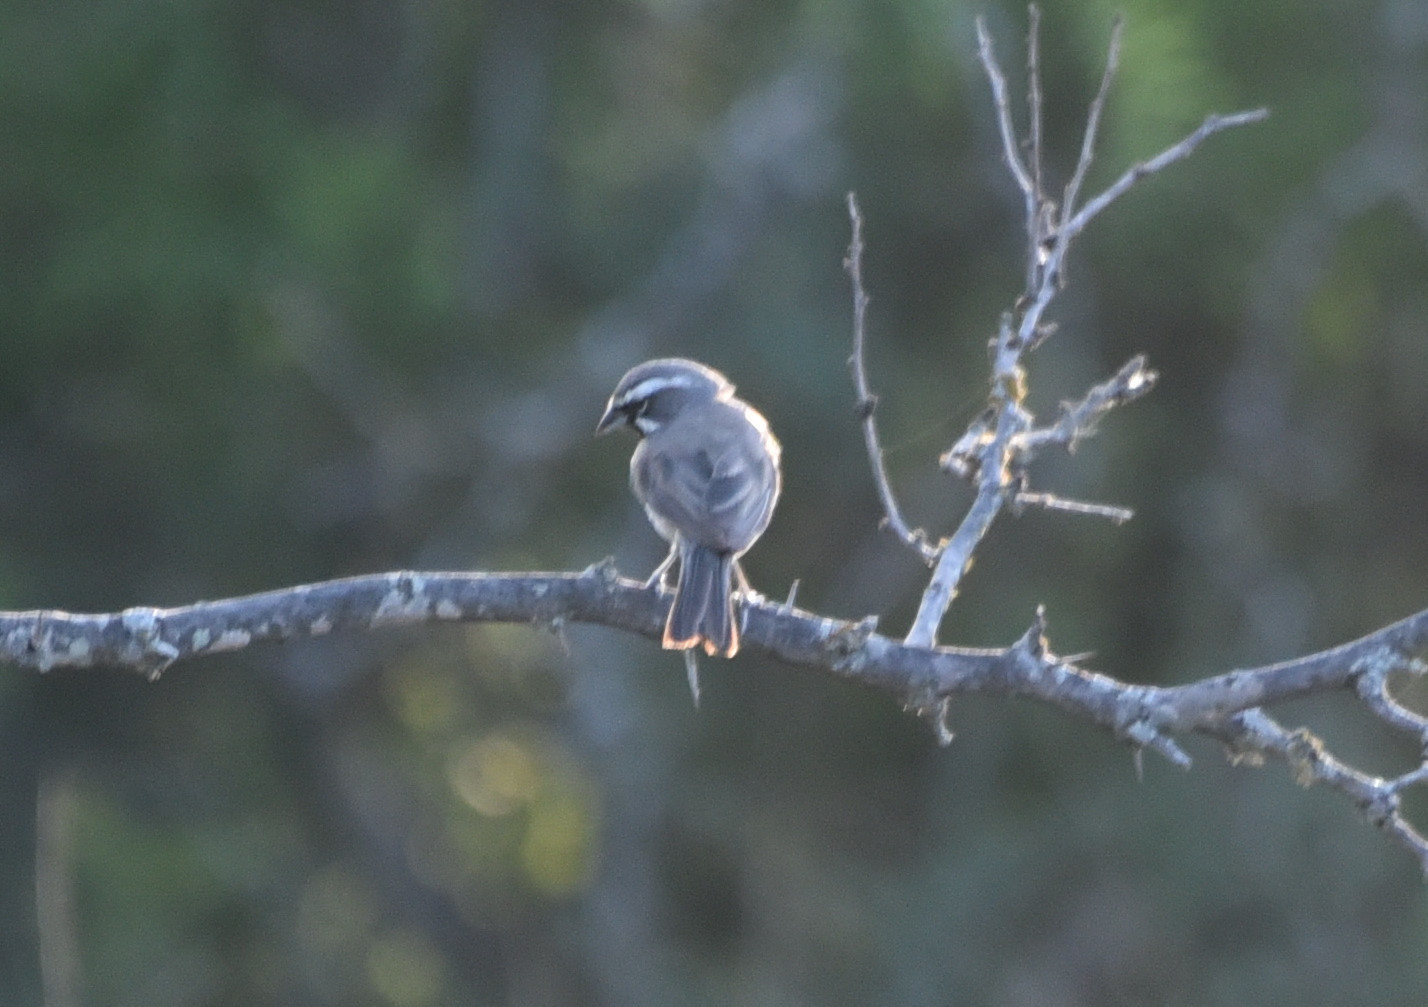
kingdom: Animalia
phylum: Chordata
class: Aves
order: Passeriformes
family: Passerellidae
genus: Amphispiza
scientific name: Amphispiza bilineata
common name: Black-throated sparrow
